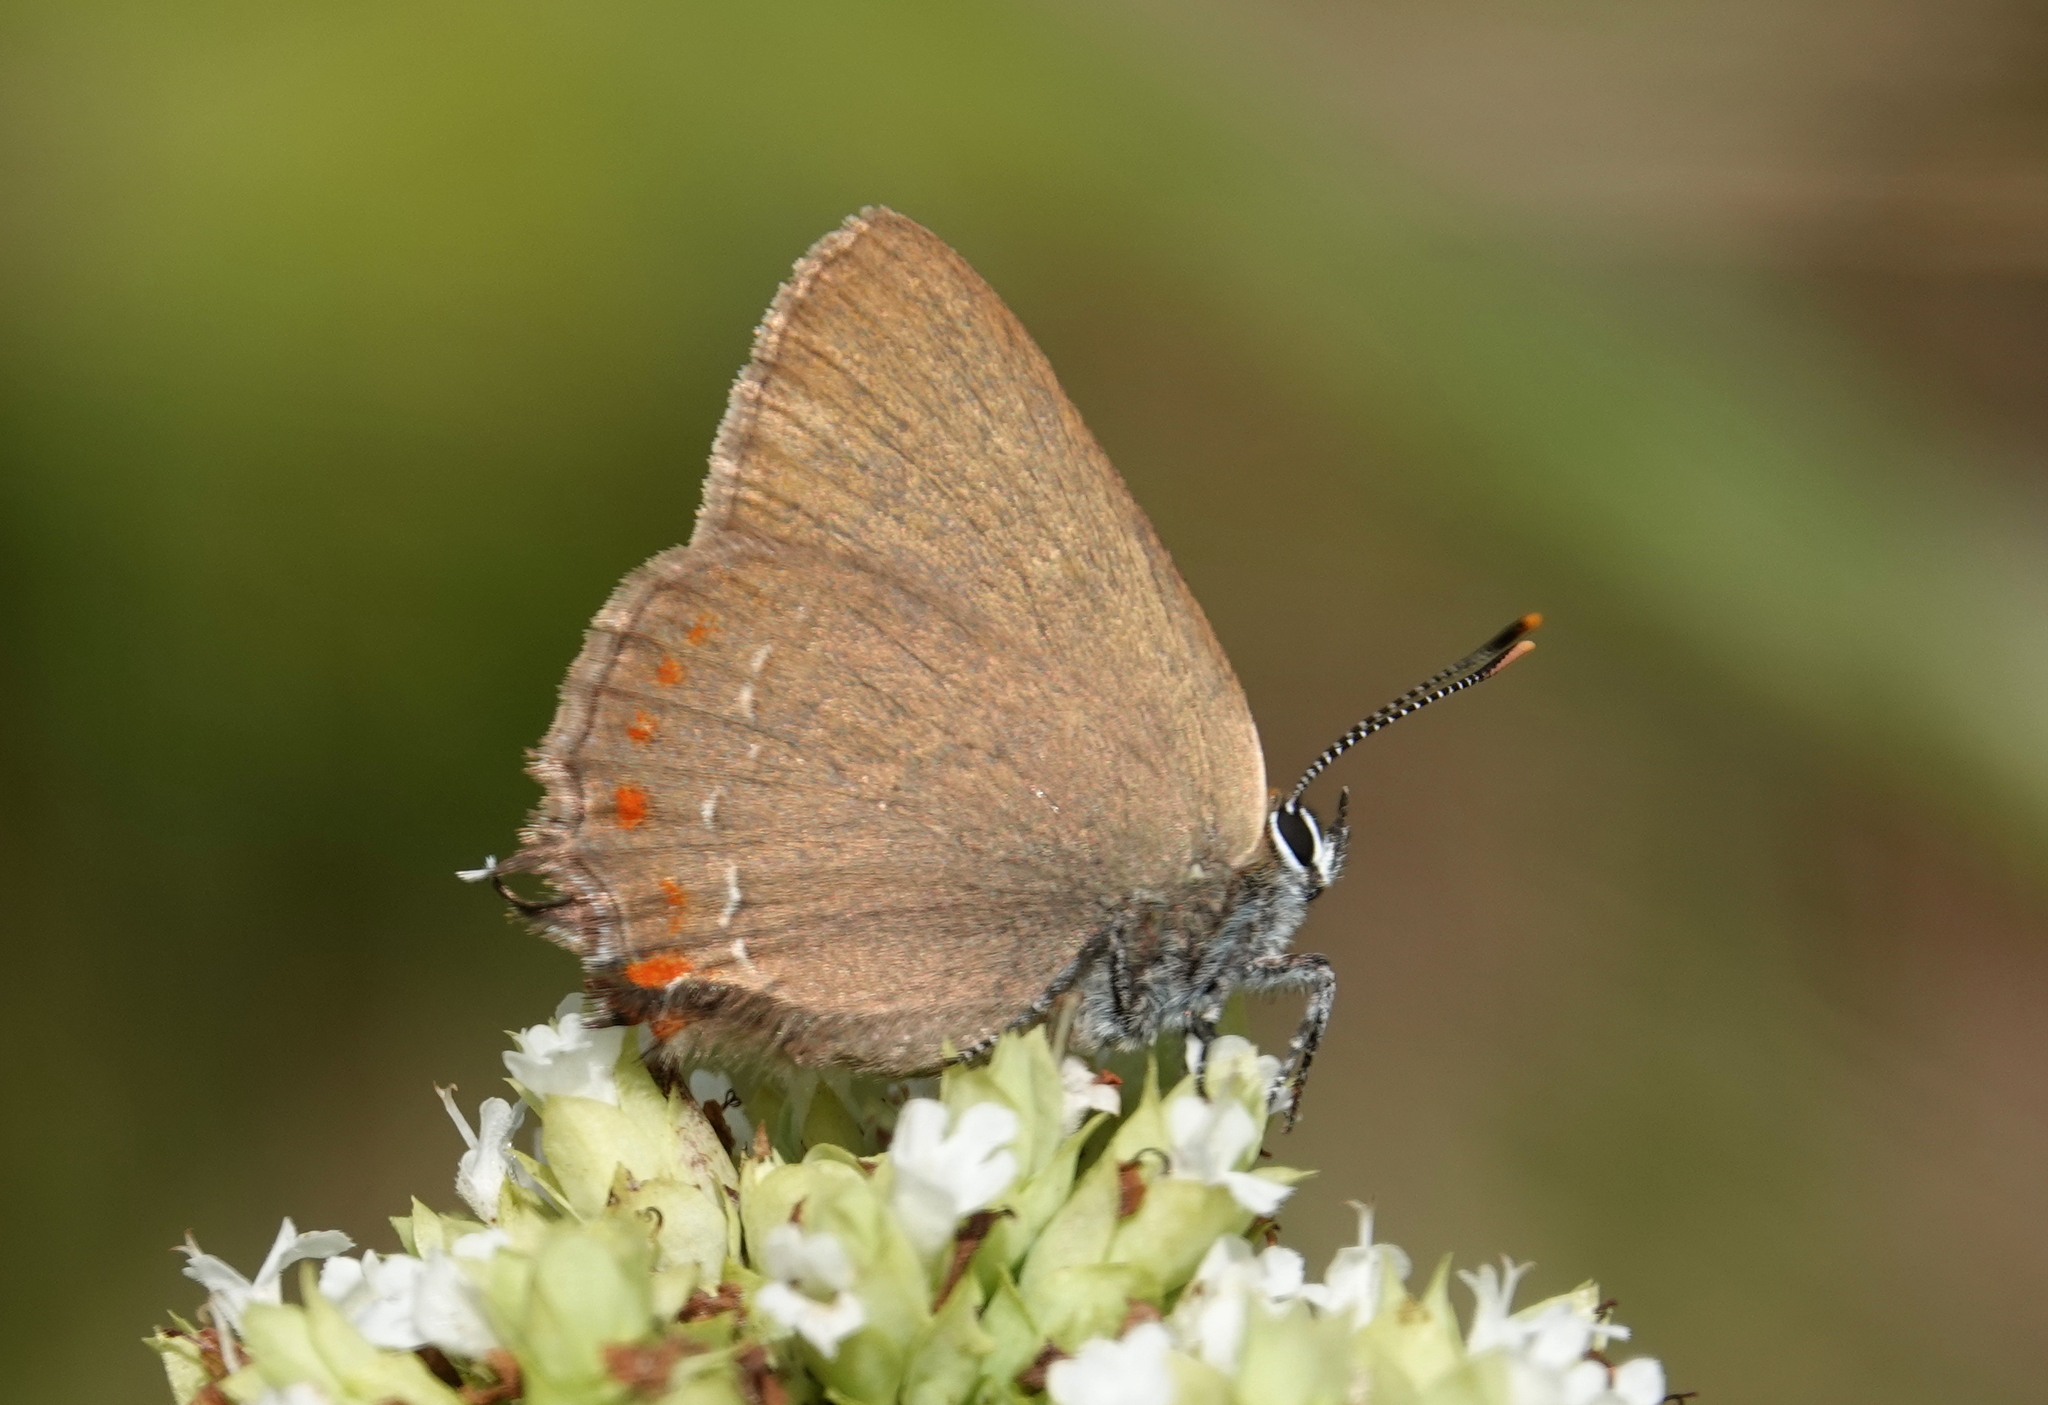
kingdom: Animalia
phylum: Arthropoda
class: Insecta
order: Lepidoptera
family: Lycaenidae
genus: Fixsenia
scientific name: Fixsenia esculi
